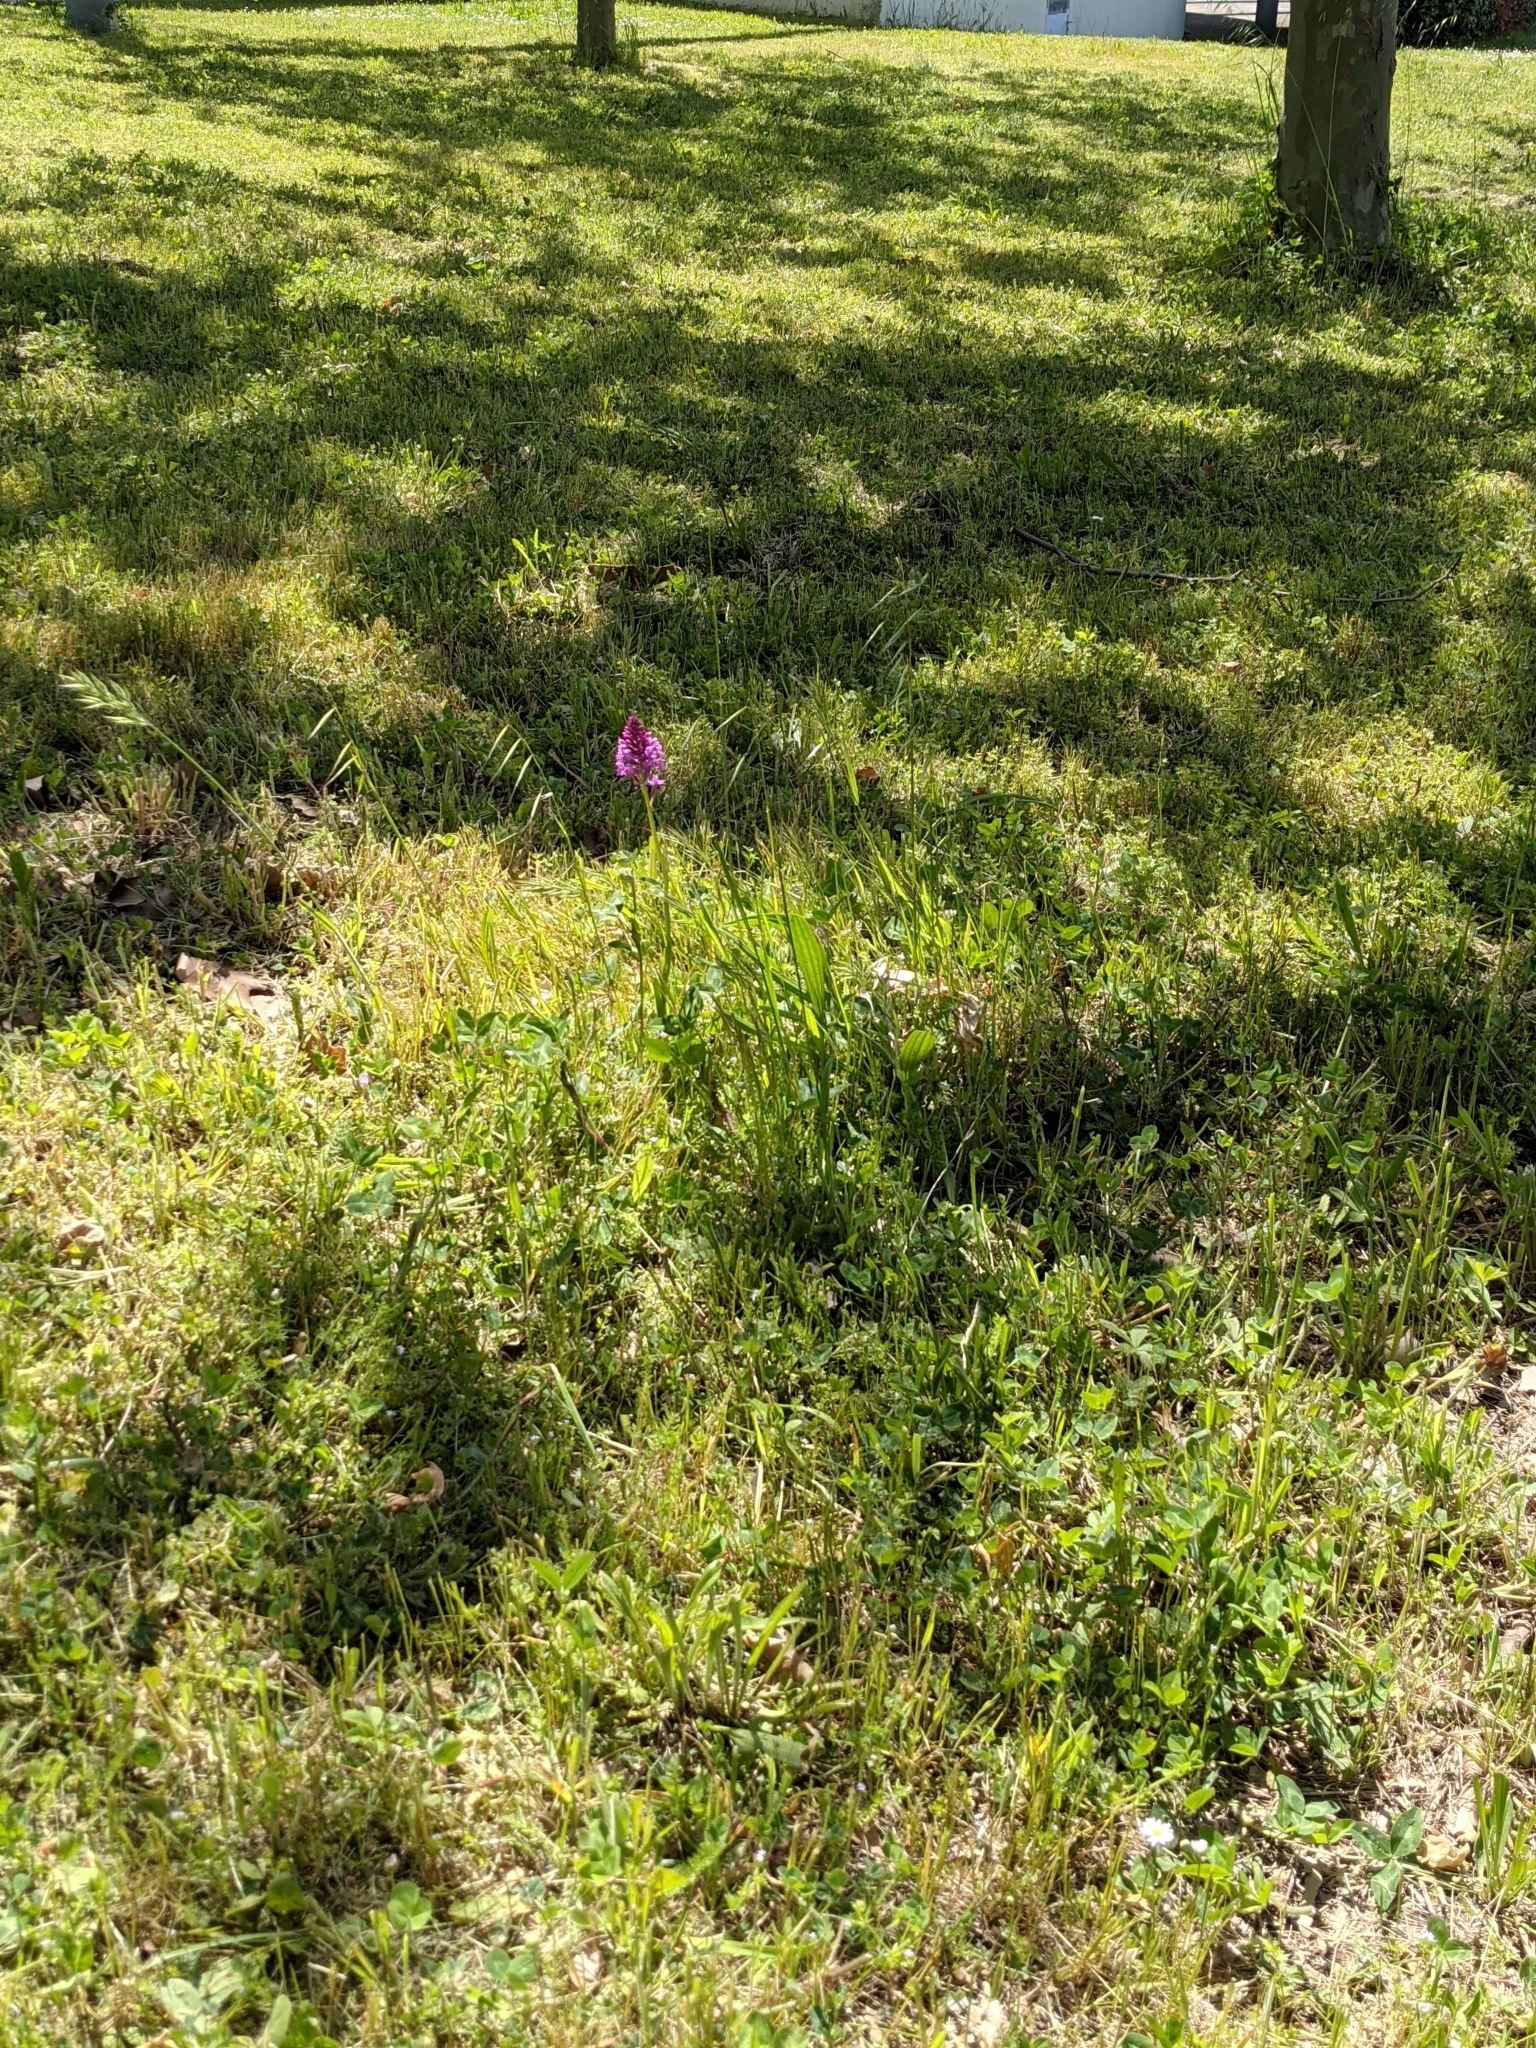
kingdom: Plantae
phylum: Tracheophyta
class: Liliopsida
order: Asparagales
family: Orchidaceae
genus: Anacamptis
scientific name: Anacamptis pyramidalis
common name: Pyramidal orchid
